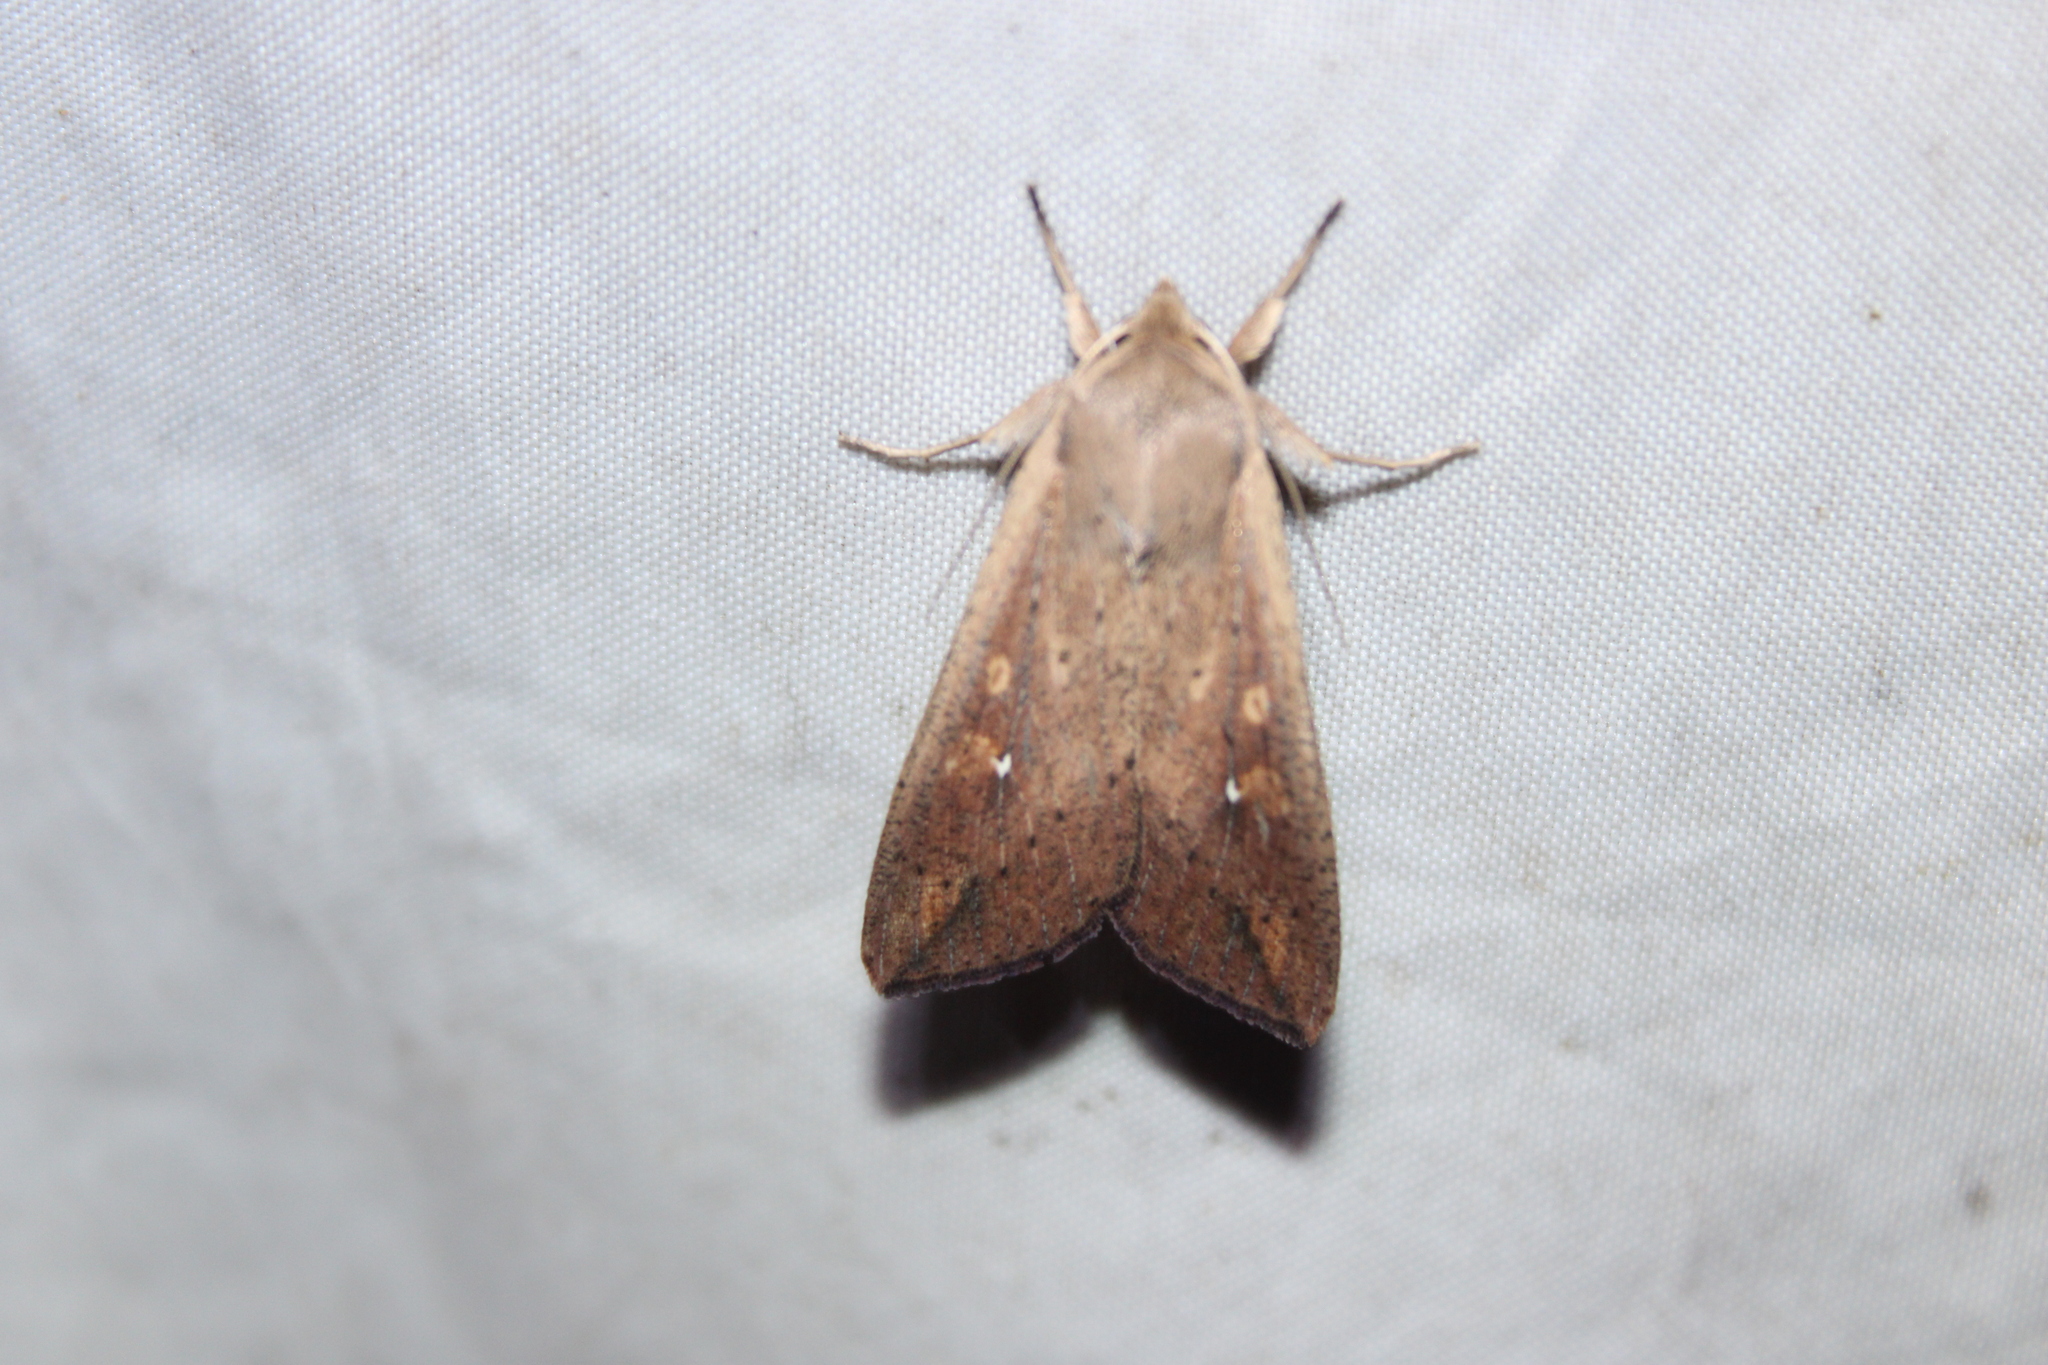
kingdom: Animalia
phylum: Arthropoda
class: Insecta
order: Lepidoptera
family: Noctuidae
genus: Mythimna
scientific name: Mythimna unipuncta
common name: White-speck
